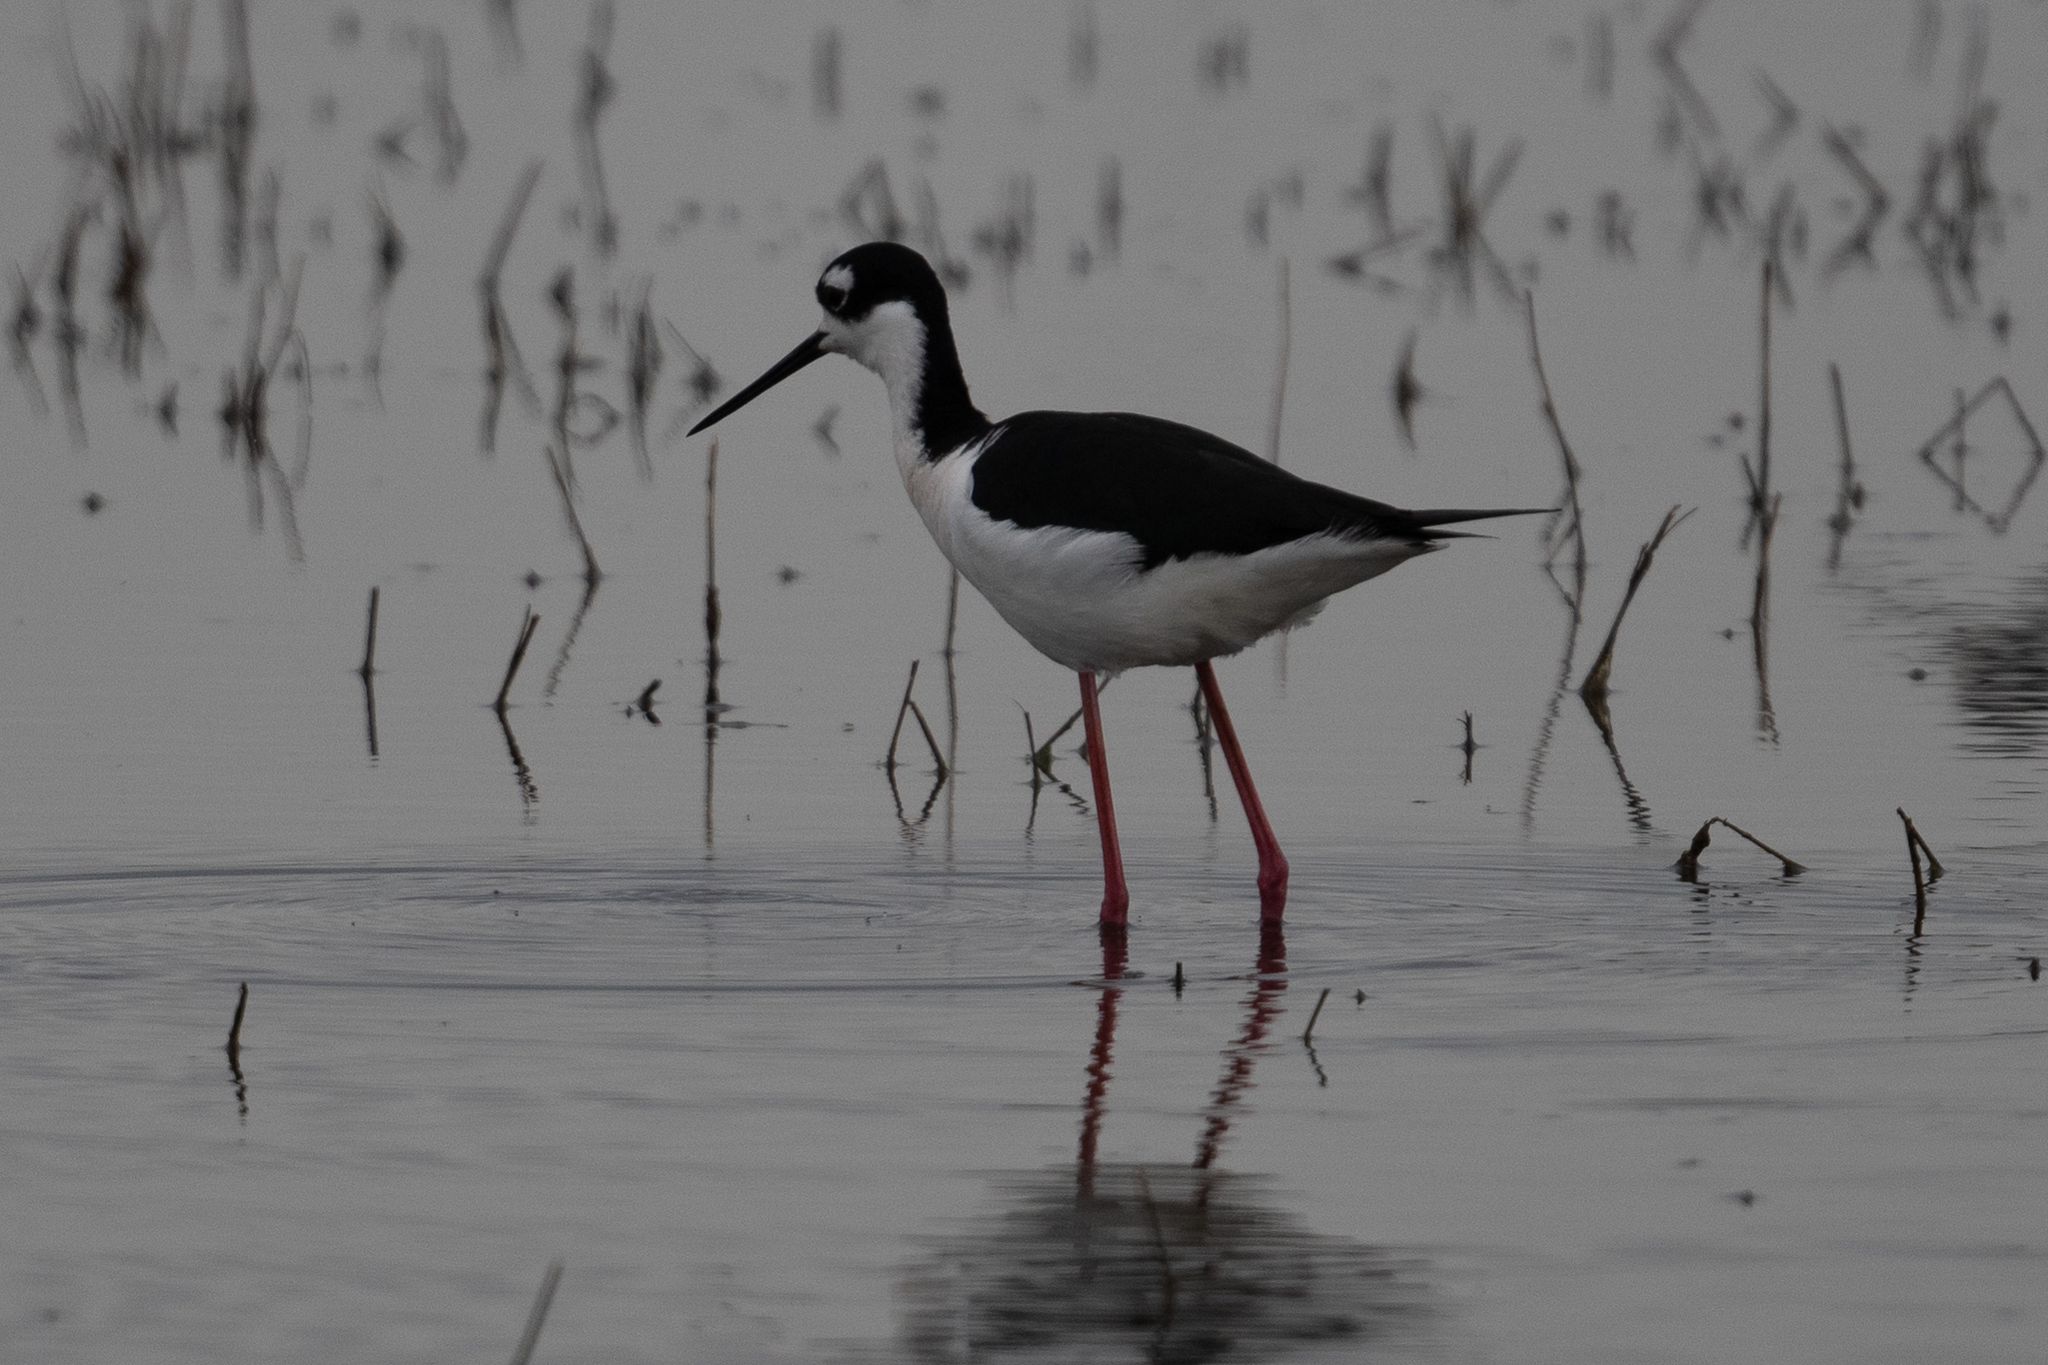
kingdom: Animalia
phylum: Chordata
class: Aves
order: Charadriiformes
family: Recurvirostridae
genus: Himantopus
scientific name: Himantopus mexicanus
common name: Black-necked stilt
